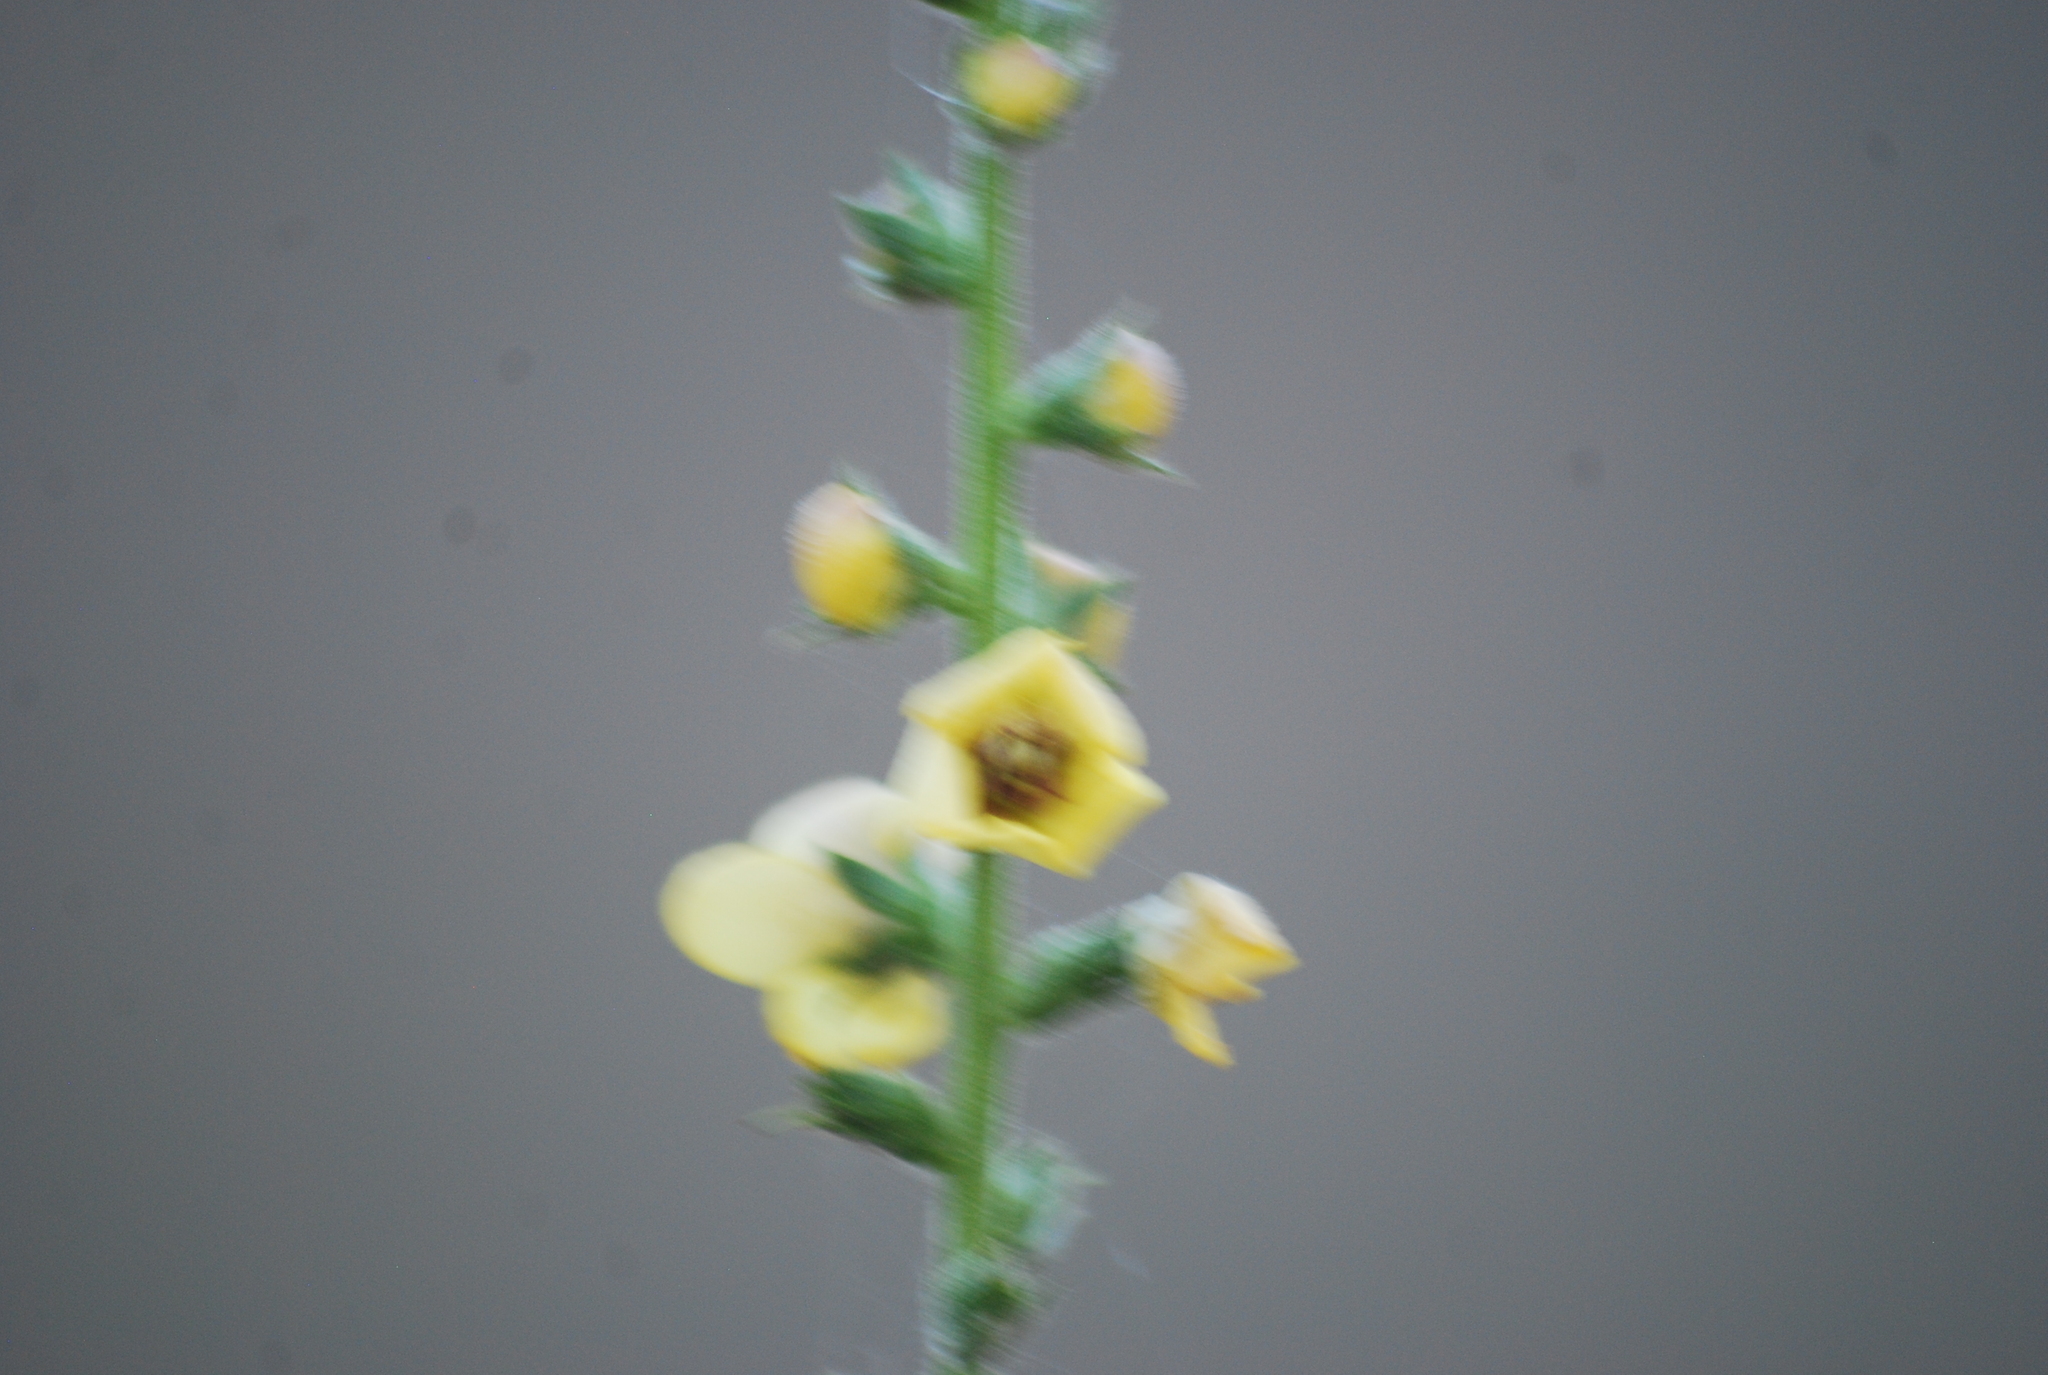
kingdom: Plantae
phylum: Tracheophyta
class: Magnoliopsida
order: Lamiales
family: Scrophulariaceae
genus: Verbascum
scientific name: Verbascum virgatum
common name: Twiggy mullein
